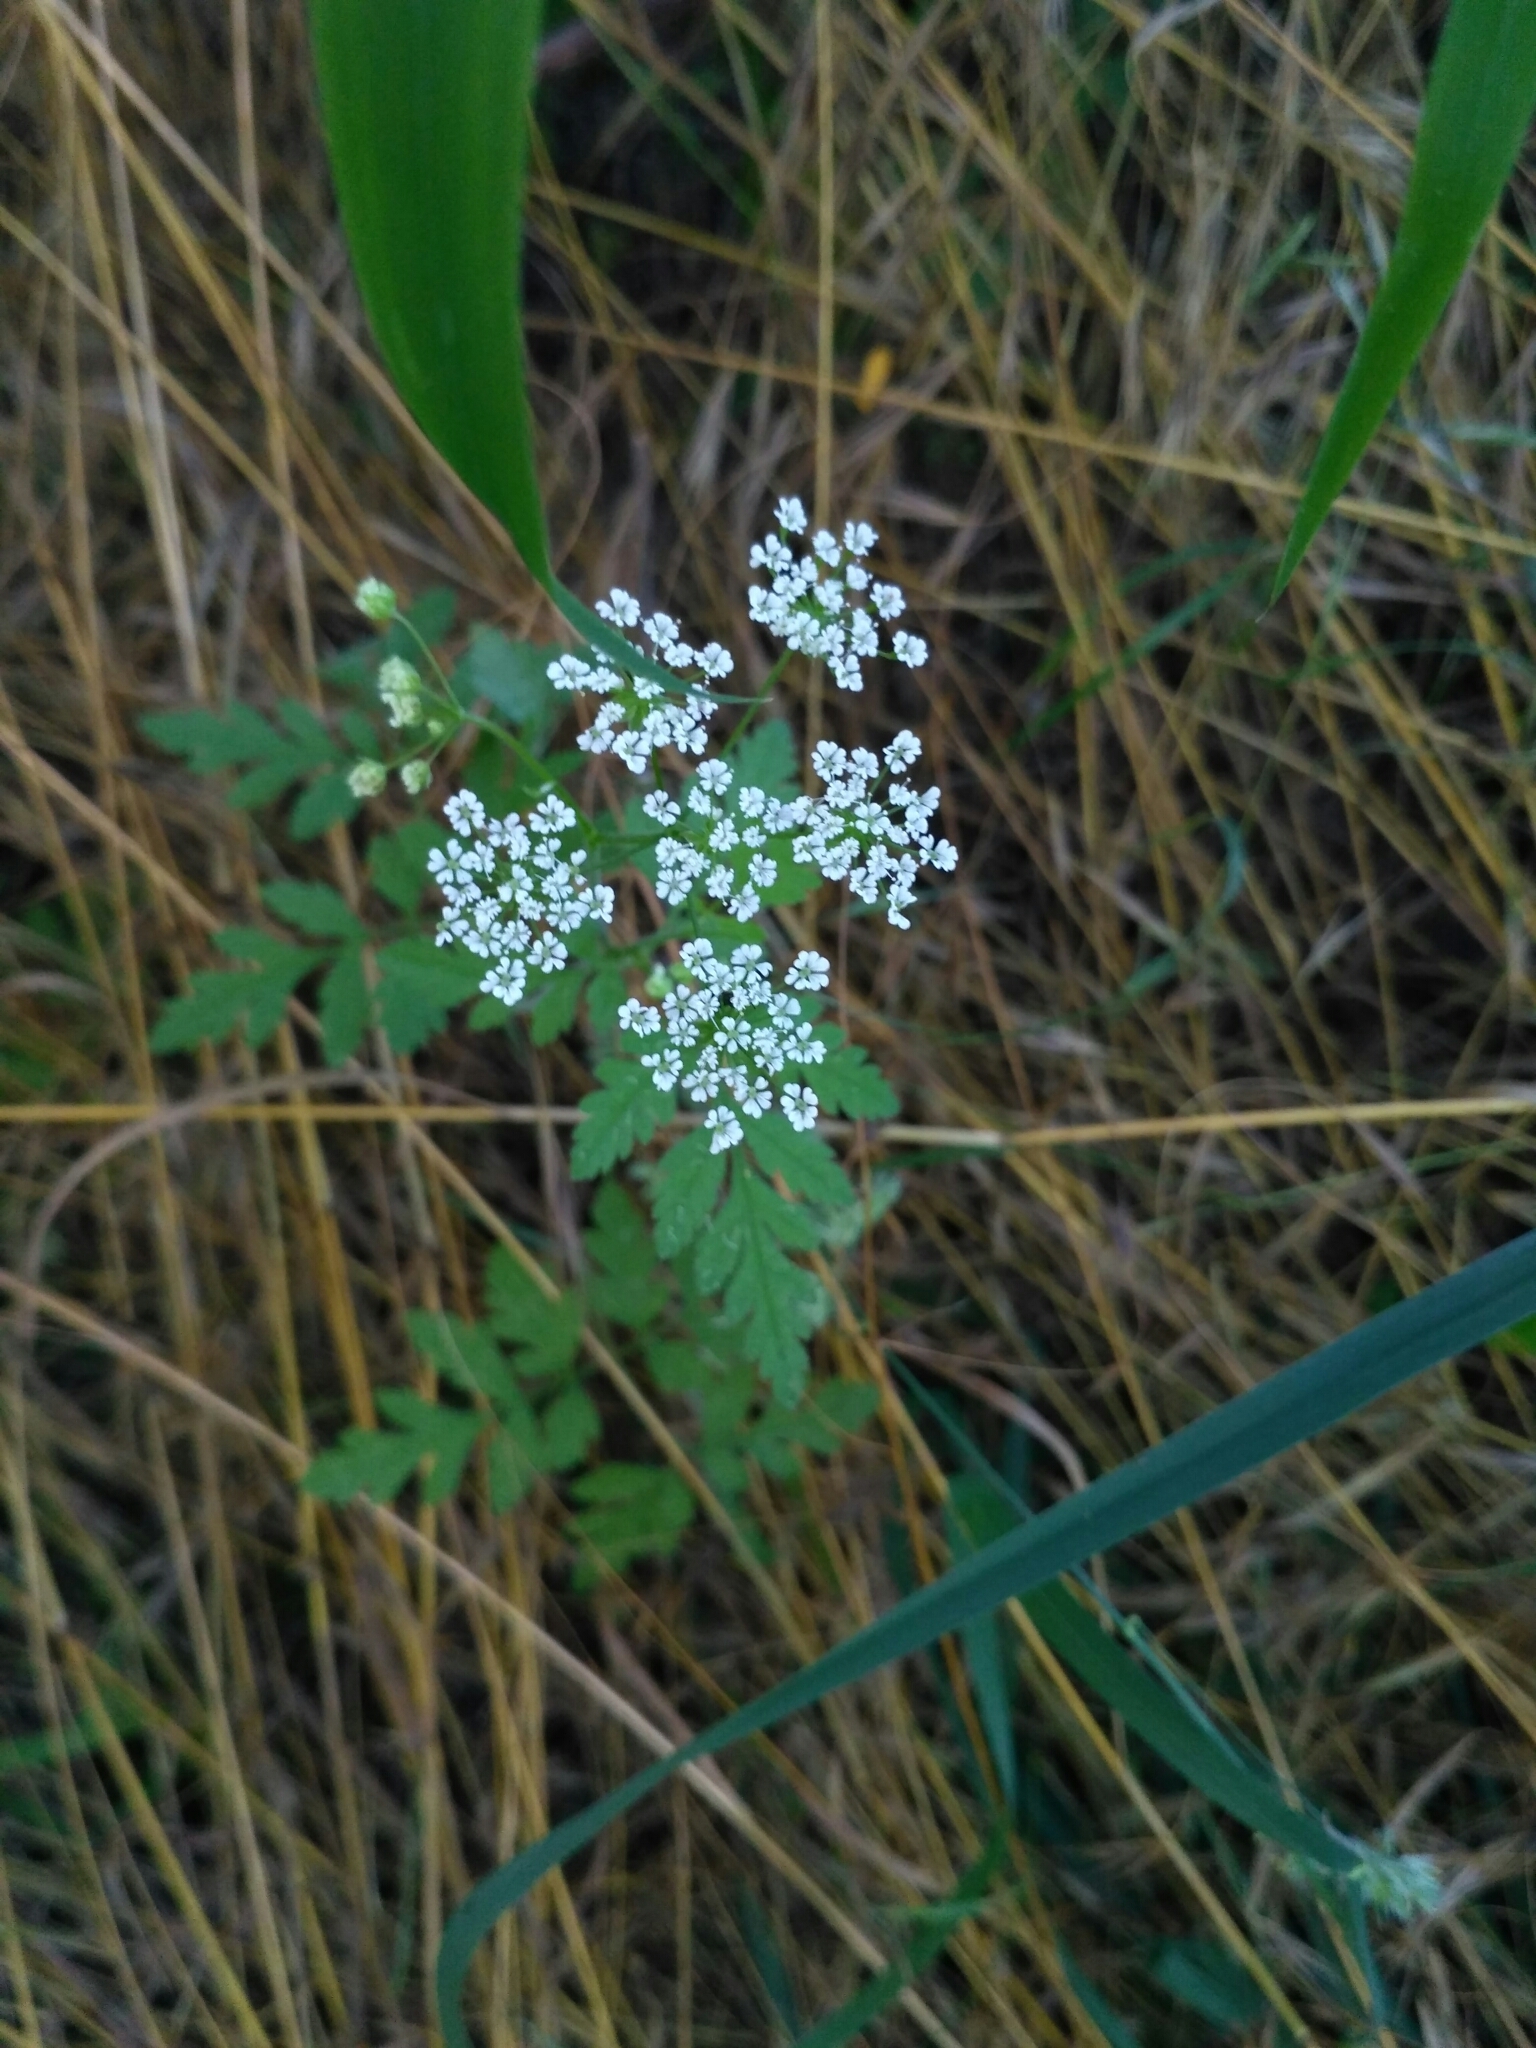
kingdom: Plantae
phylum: Tracheophyta
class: Magnoliopsida
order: Apiales
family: Apiaceae
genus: Chaerophyllum
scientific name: Chaerophyllum temulum
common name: Rough chervil
